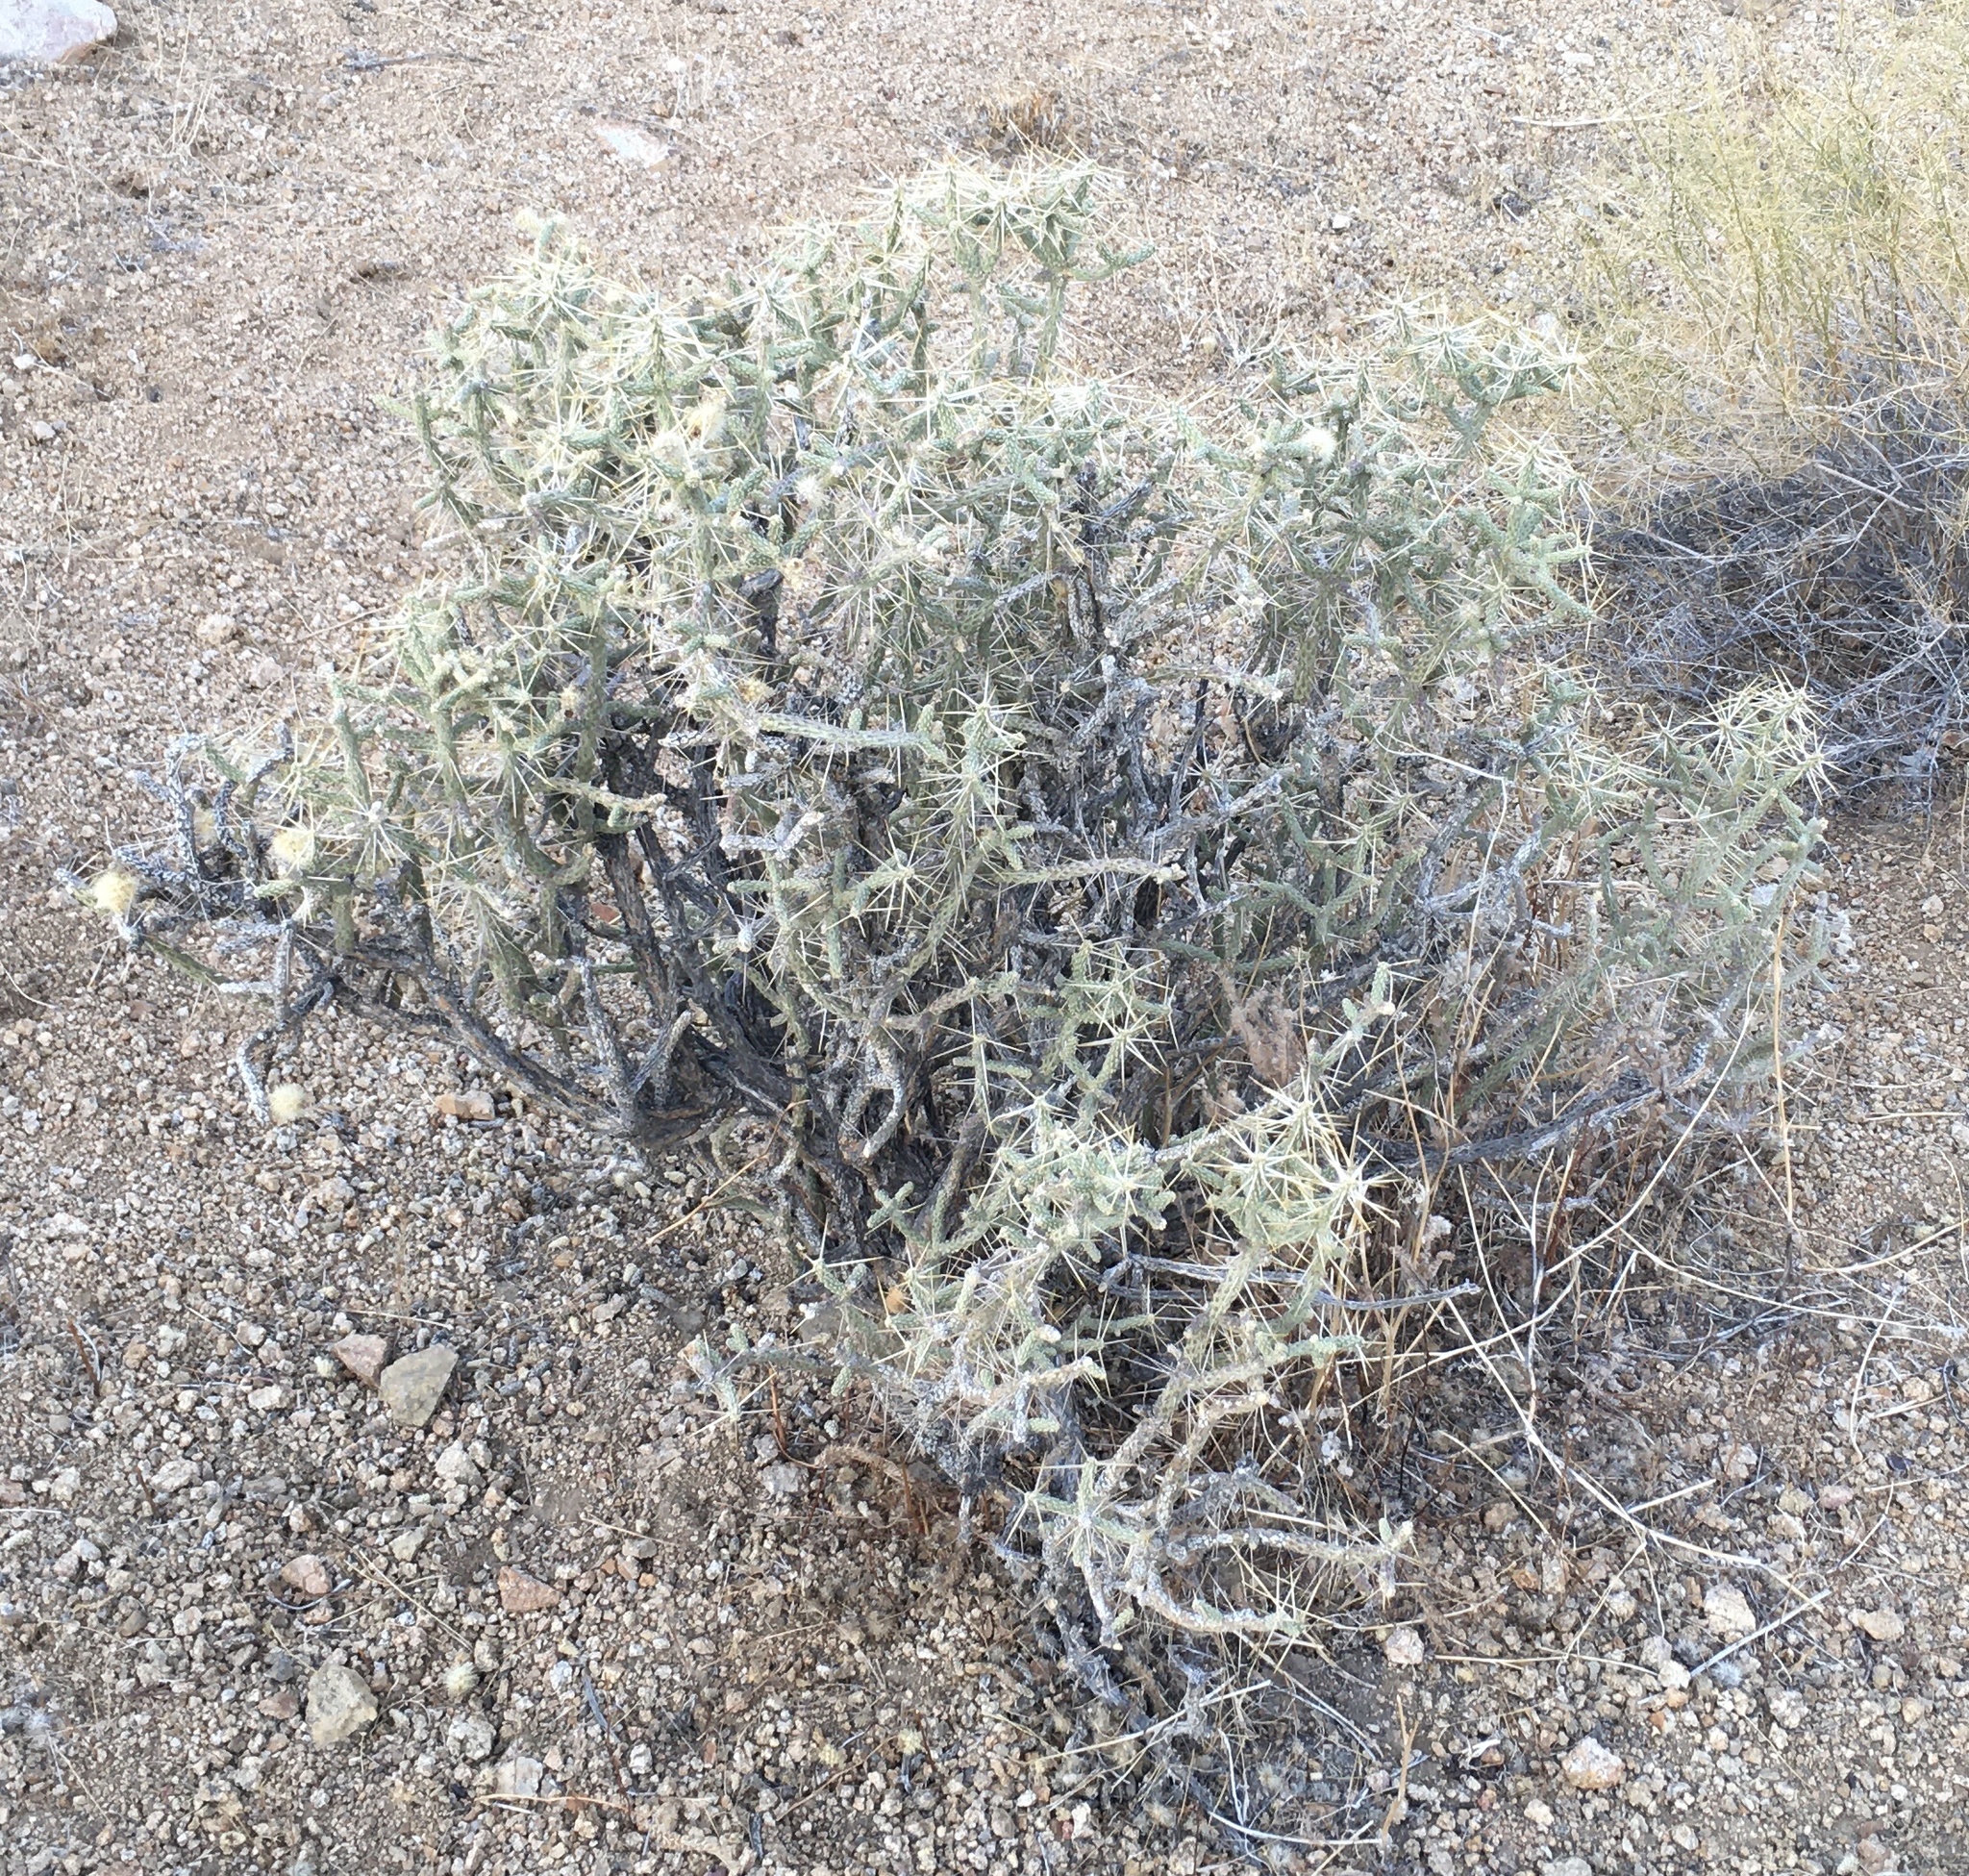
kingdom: Plantae
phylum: Tracheophyta
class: Magnoliopsida
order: Caryophyllales
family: Cactaceae
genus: Cylindropuntia
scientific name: Cylindropuntia ramosissima
